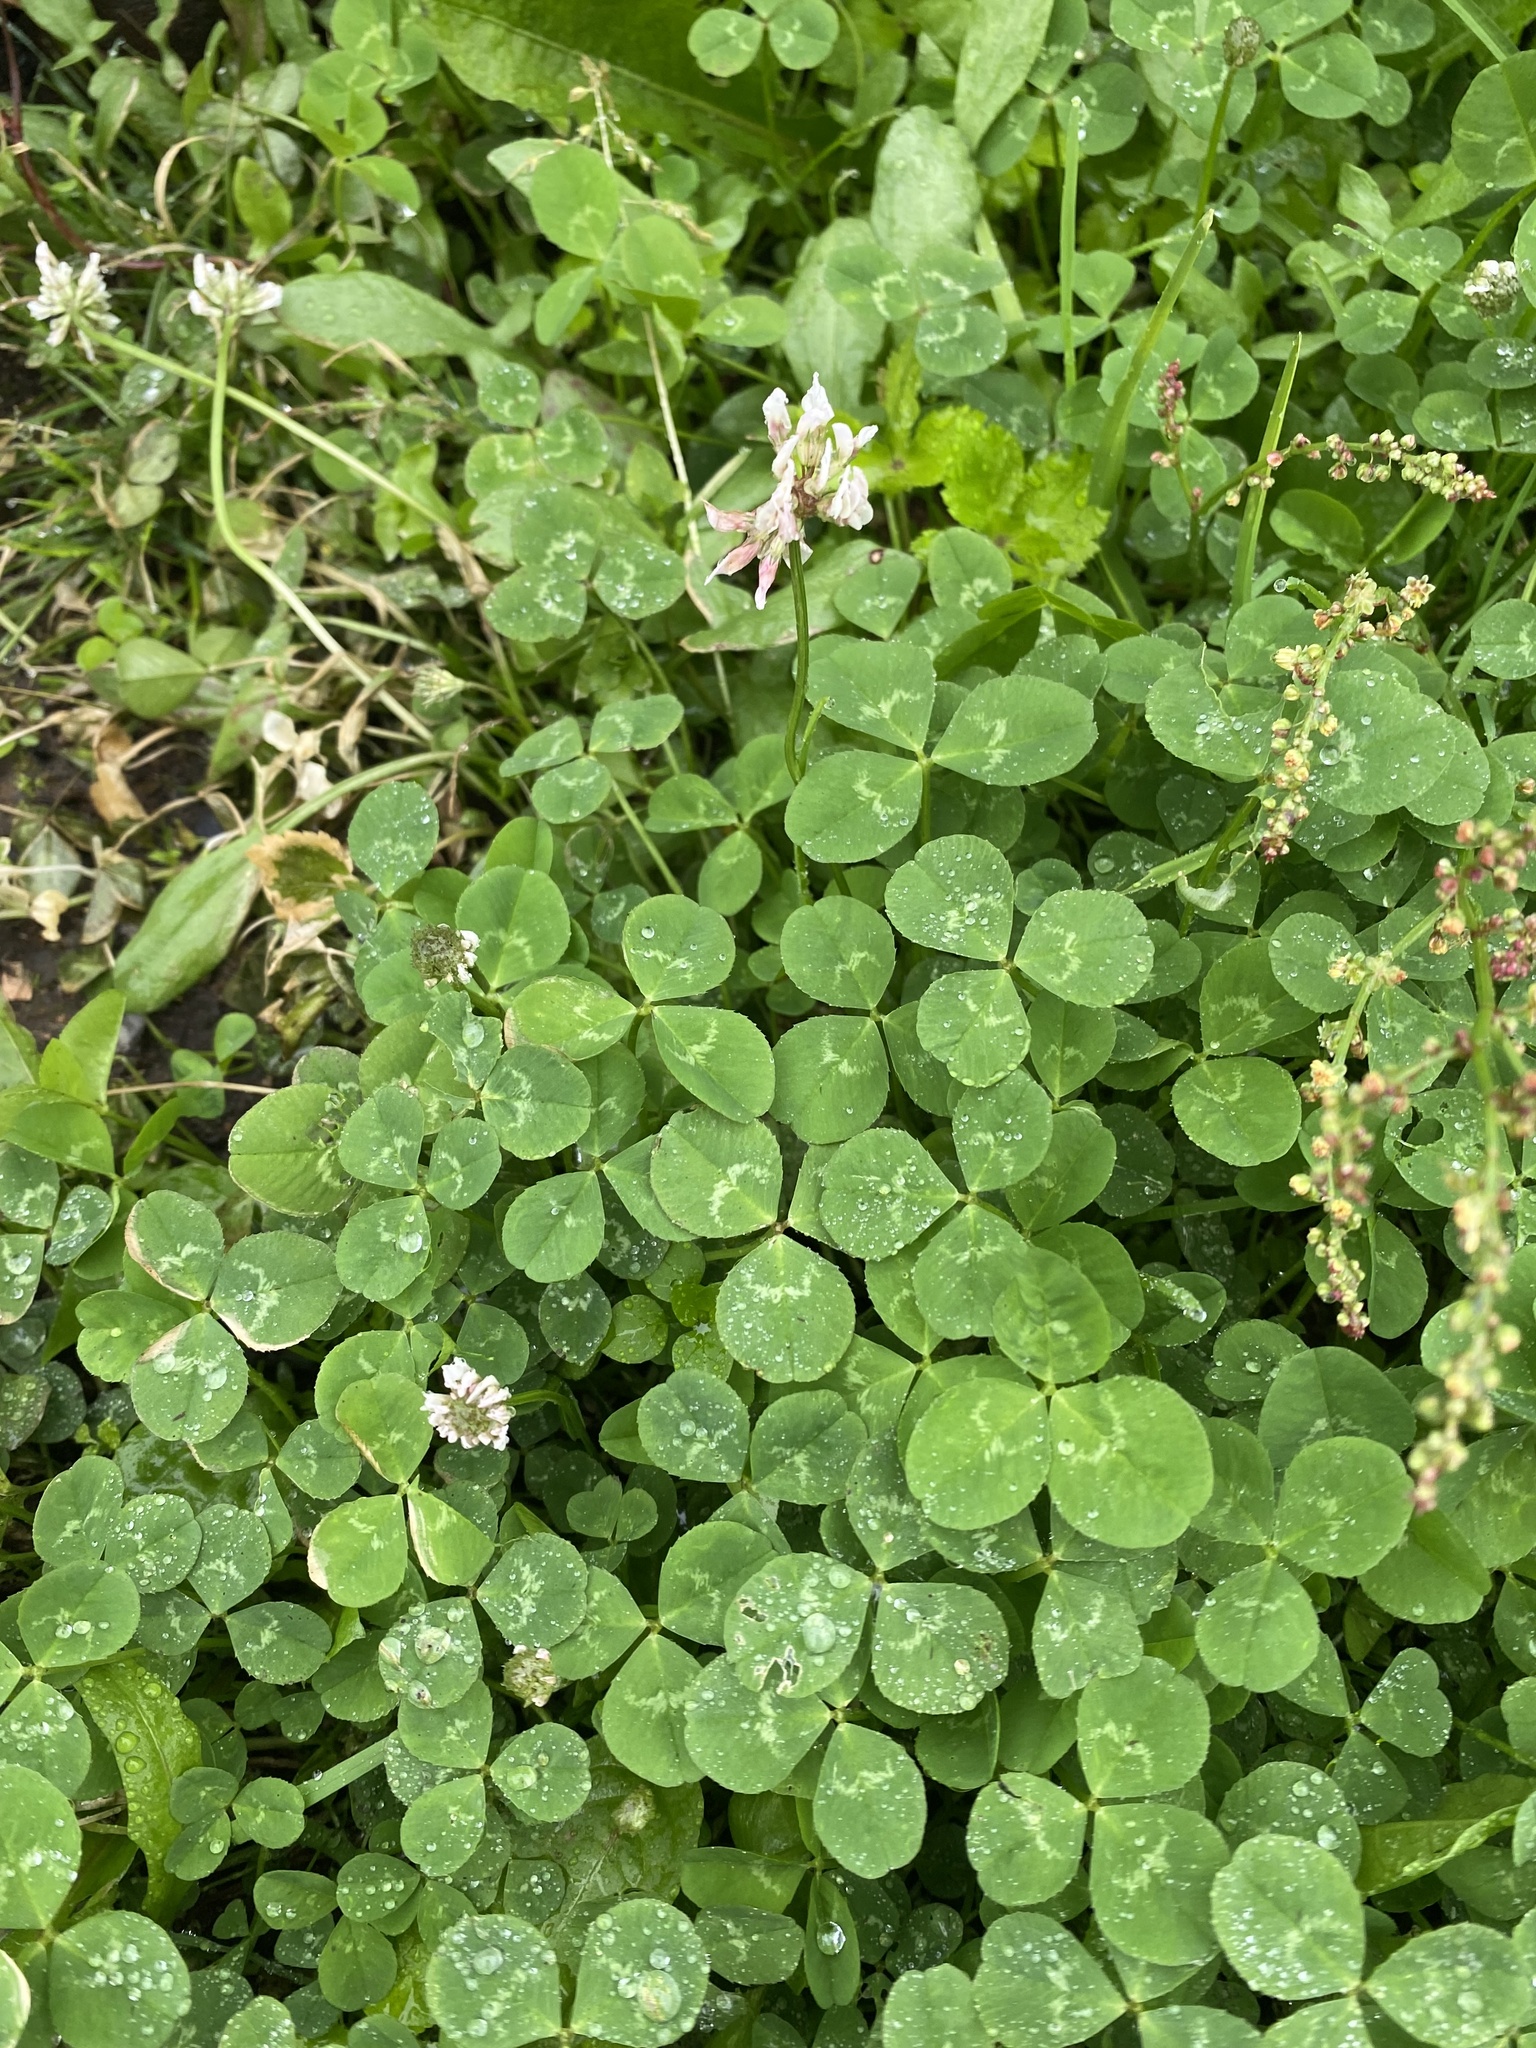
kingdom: Plantae
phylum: Tracheophyta
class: Magnoliopsida
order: Fabales
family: Fabaceae
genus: Trifolium
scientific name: Trifolium repens
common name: White clover
